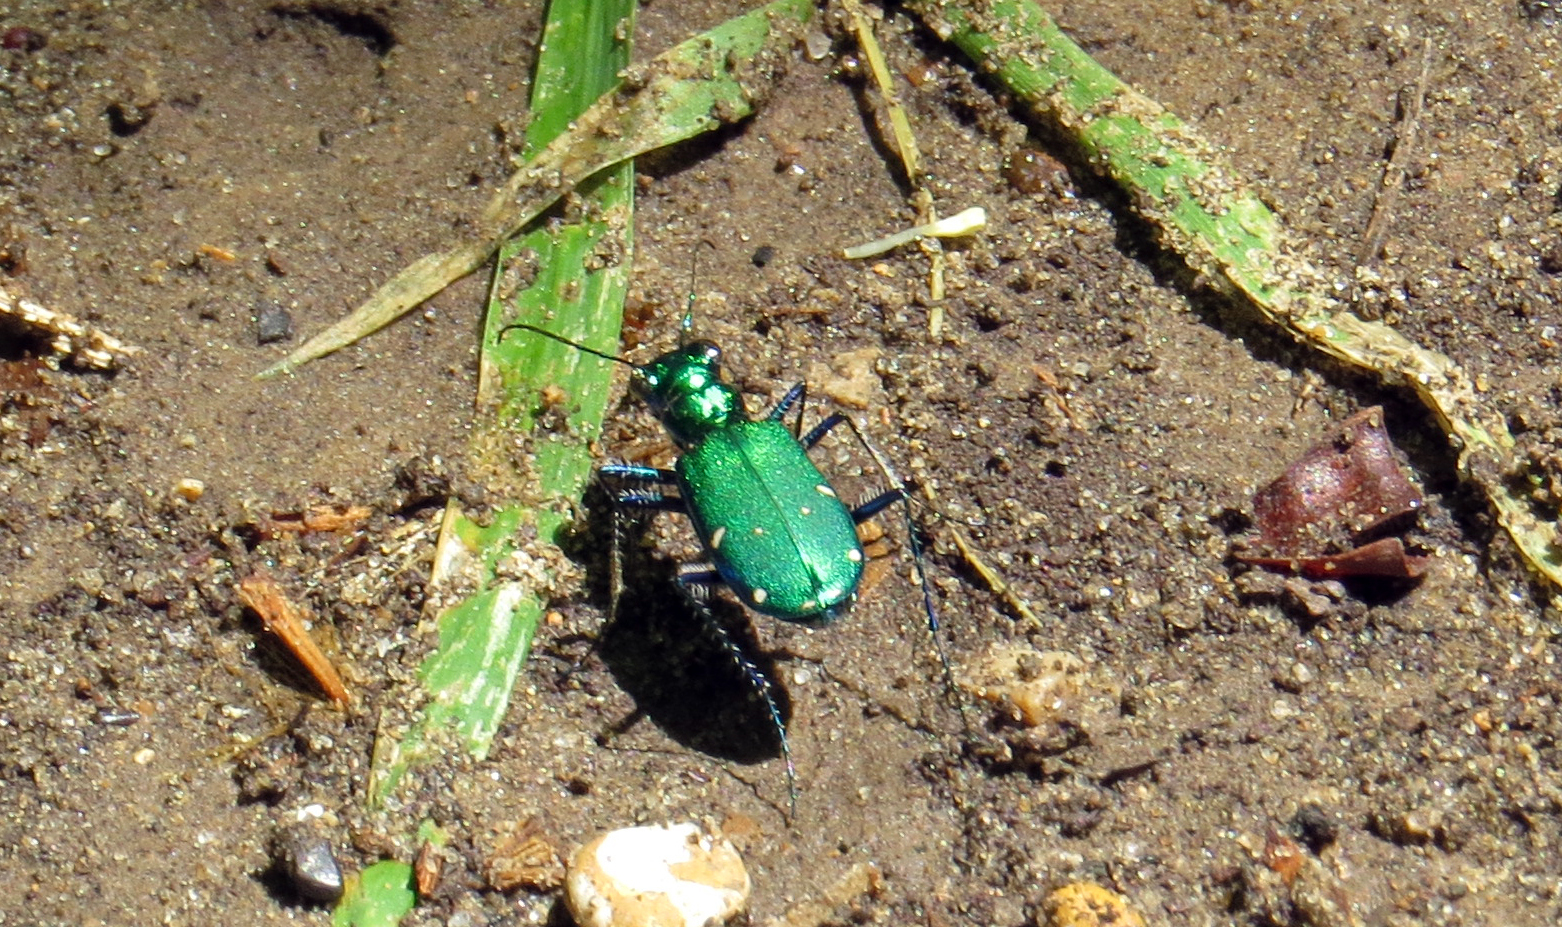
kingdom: Animalia
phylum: Arthropoda
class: Insecta
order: Coleoptera
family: Carabidae
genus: Cicindela
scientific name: Cicindela sexguttata
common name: Six-spotted tiger beetle
